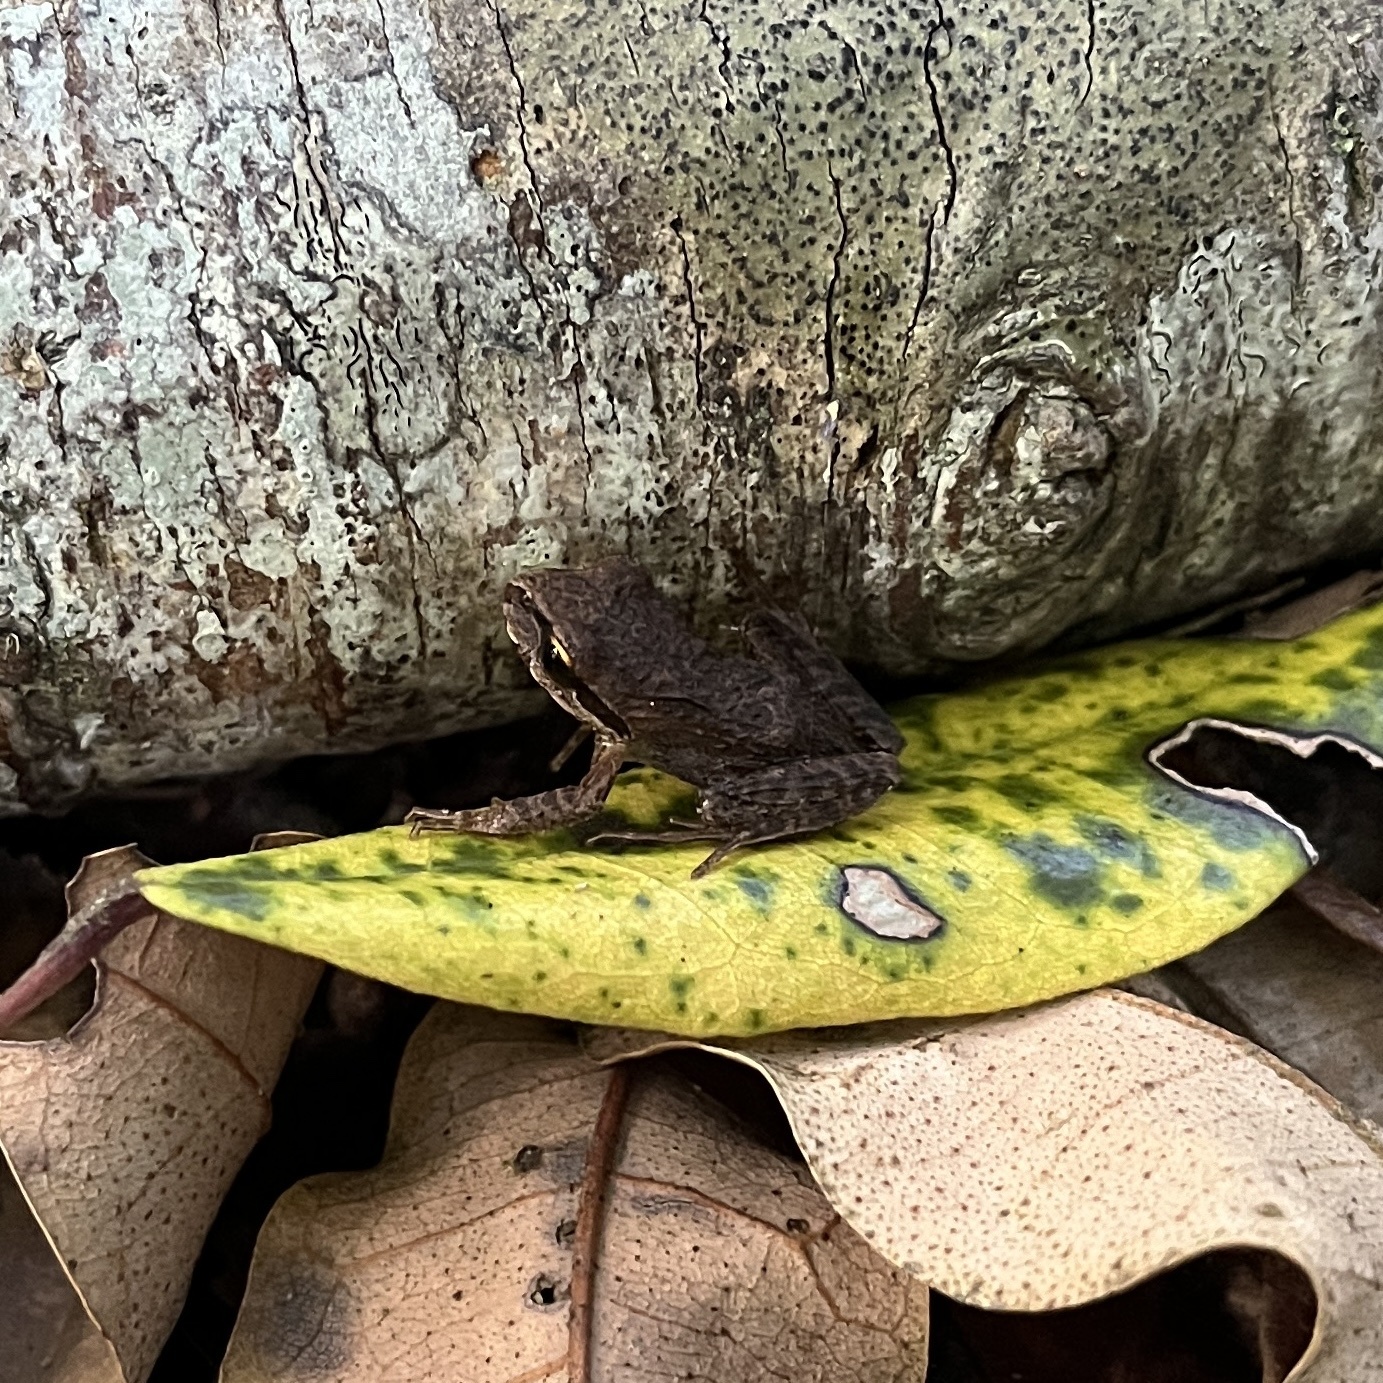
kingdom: Animalia
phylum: Chordata
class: Amphibia
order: Anura
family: Batrachylidae
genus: Batrachyla
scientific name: Batrachyla taeniata
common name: Banded wood frog
